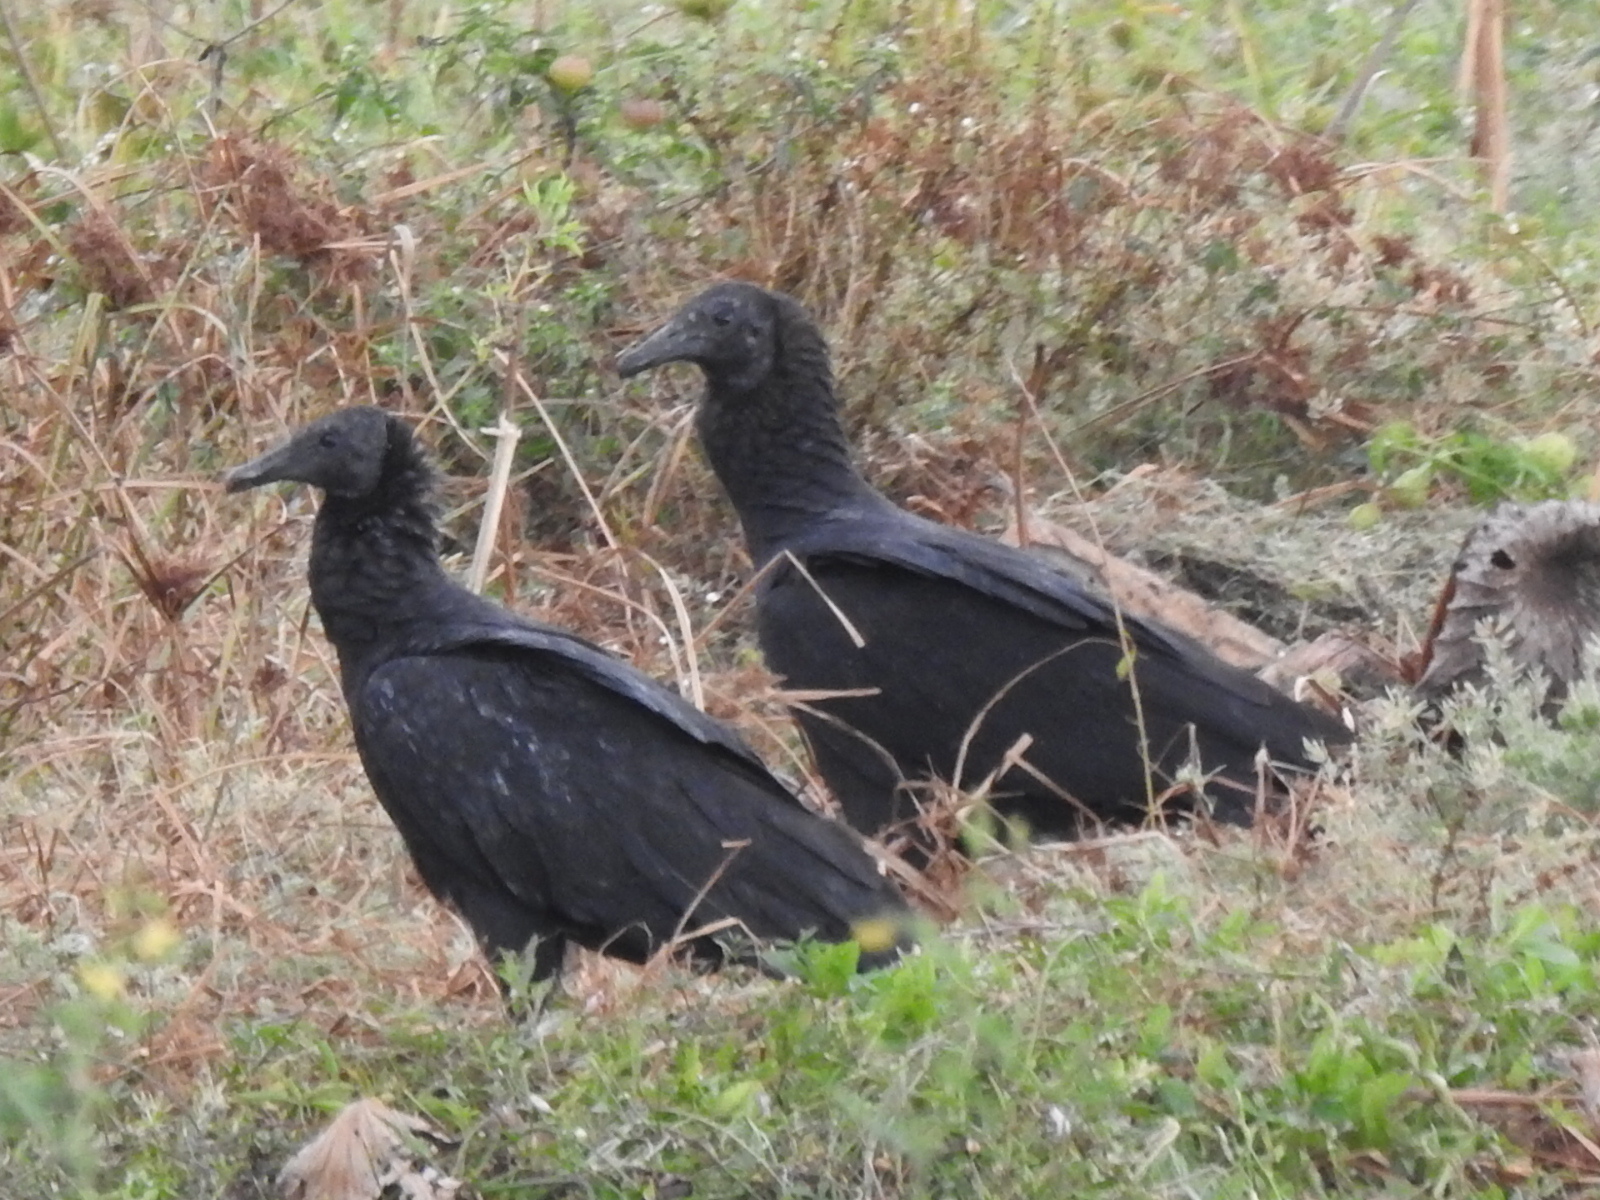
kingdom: Animalia
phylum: Chordata
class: Aves
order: Accipitriformes
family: Cathartidae
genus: Coragyps
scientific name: Coragyps atratus
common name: Black vulture
